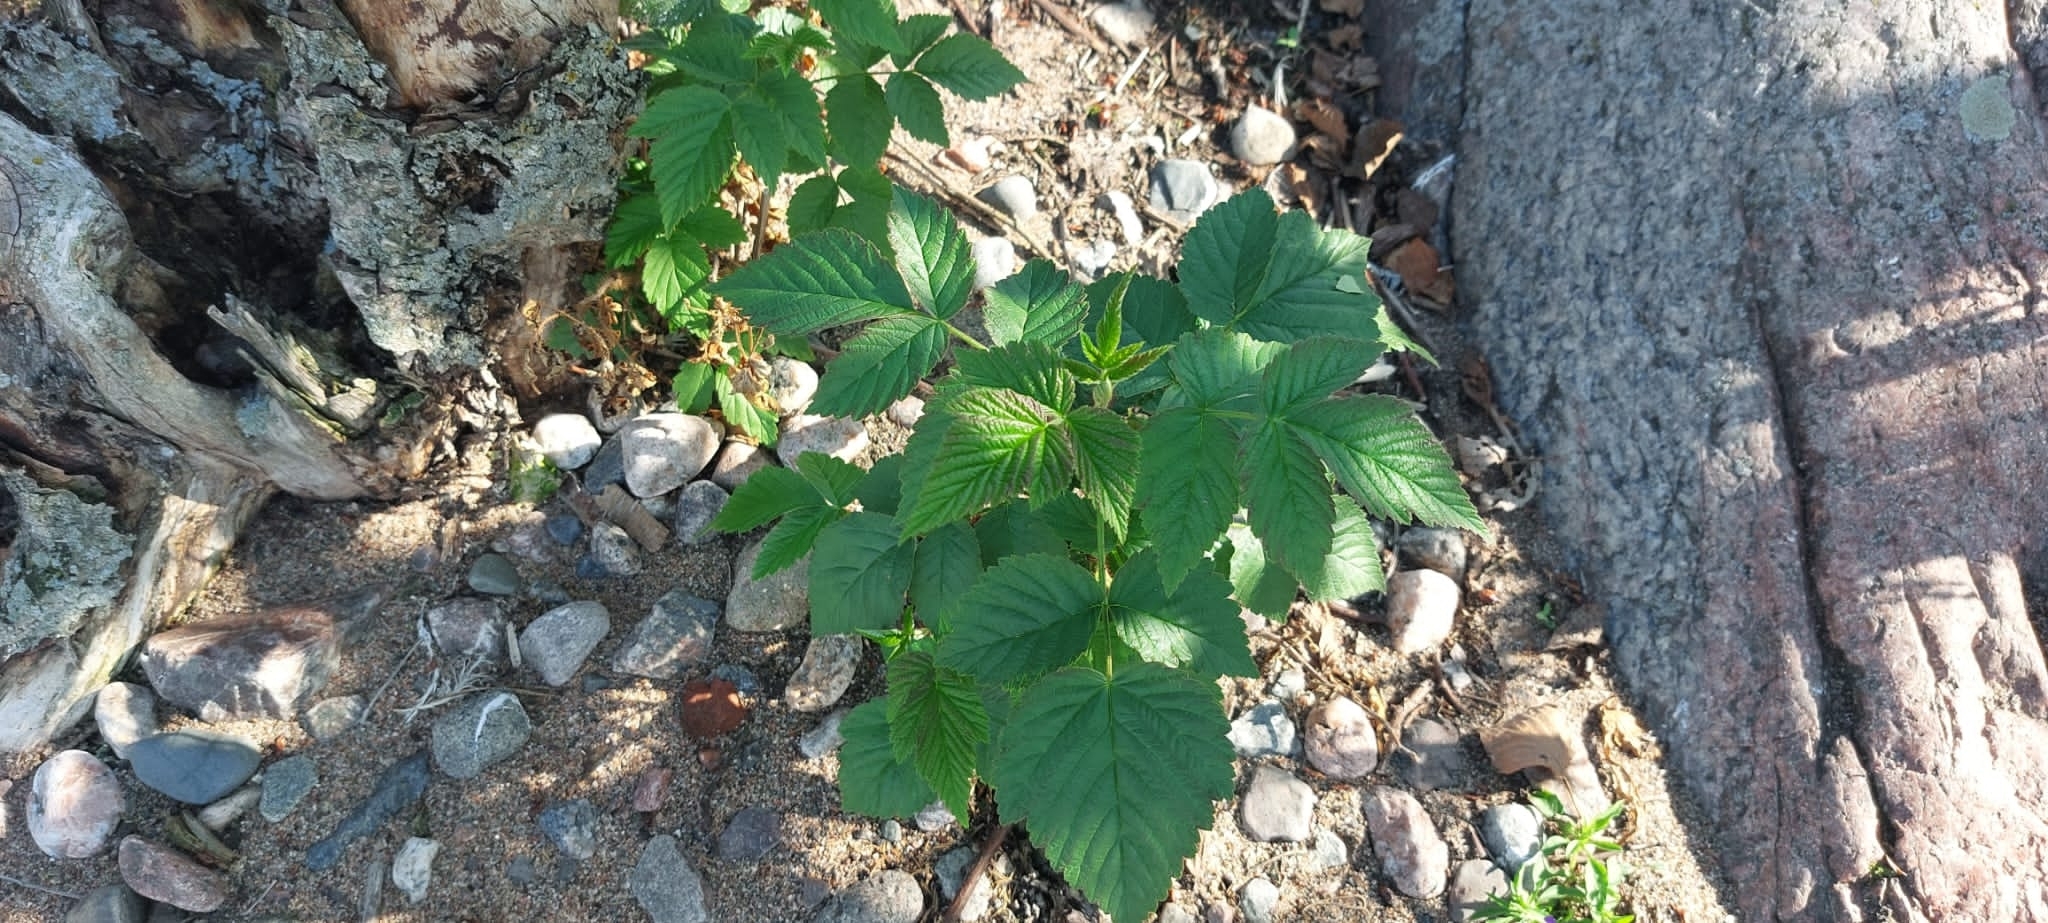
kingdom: Plantae
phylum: Tracheophyta
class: Magnoliopsida
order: Rosales
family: Rosaceae
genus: Rubus
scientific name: Rubus idaeus
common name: Raspberry
